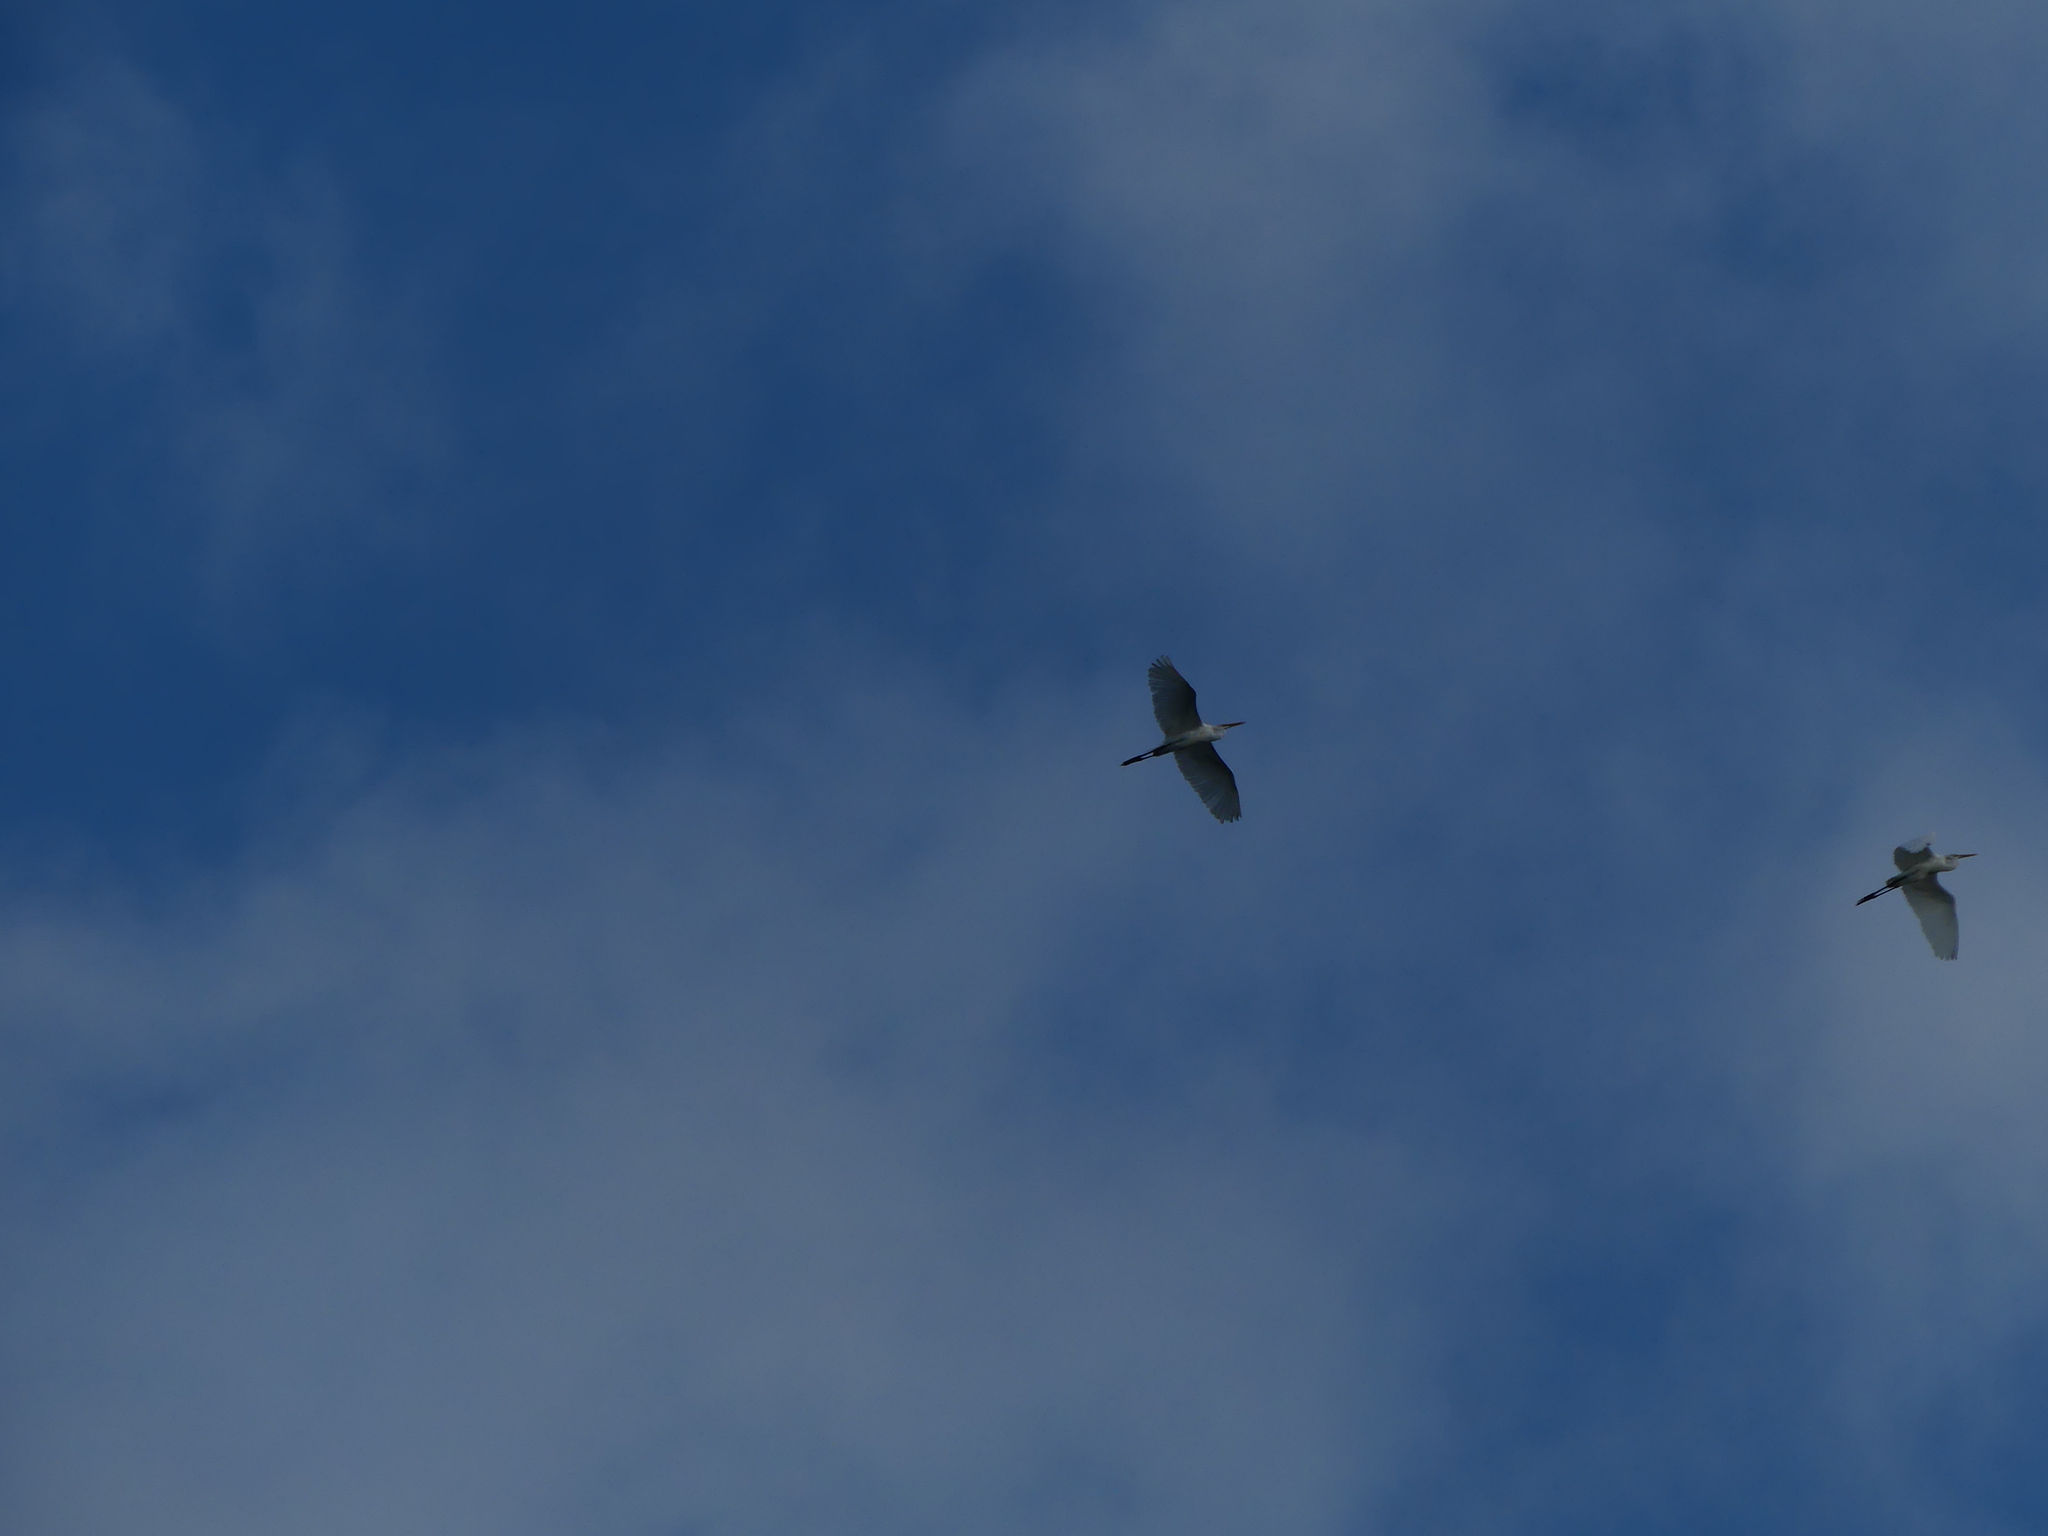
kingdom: Animalia
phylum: Chordata
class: Aves
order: Pelecaniformes
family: Ardeidae
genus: Ardea
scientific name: Ardea alba
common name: Great egret
